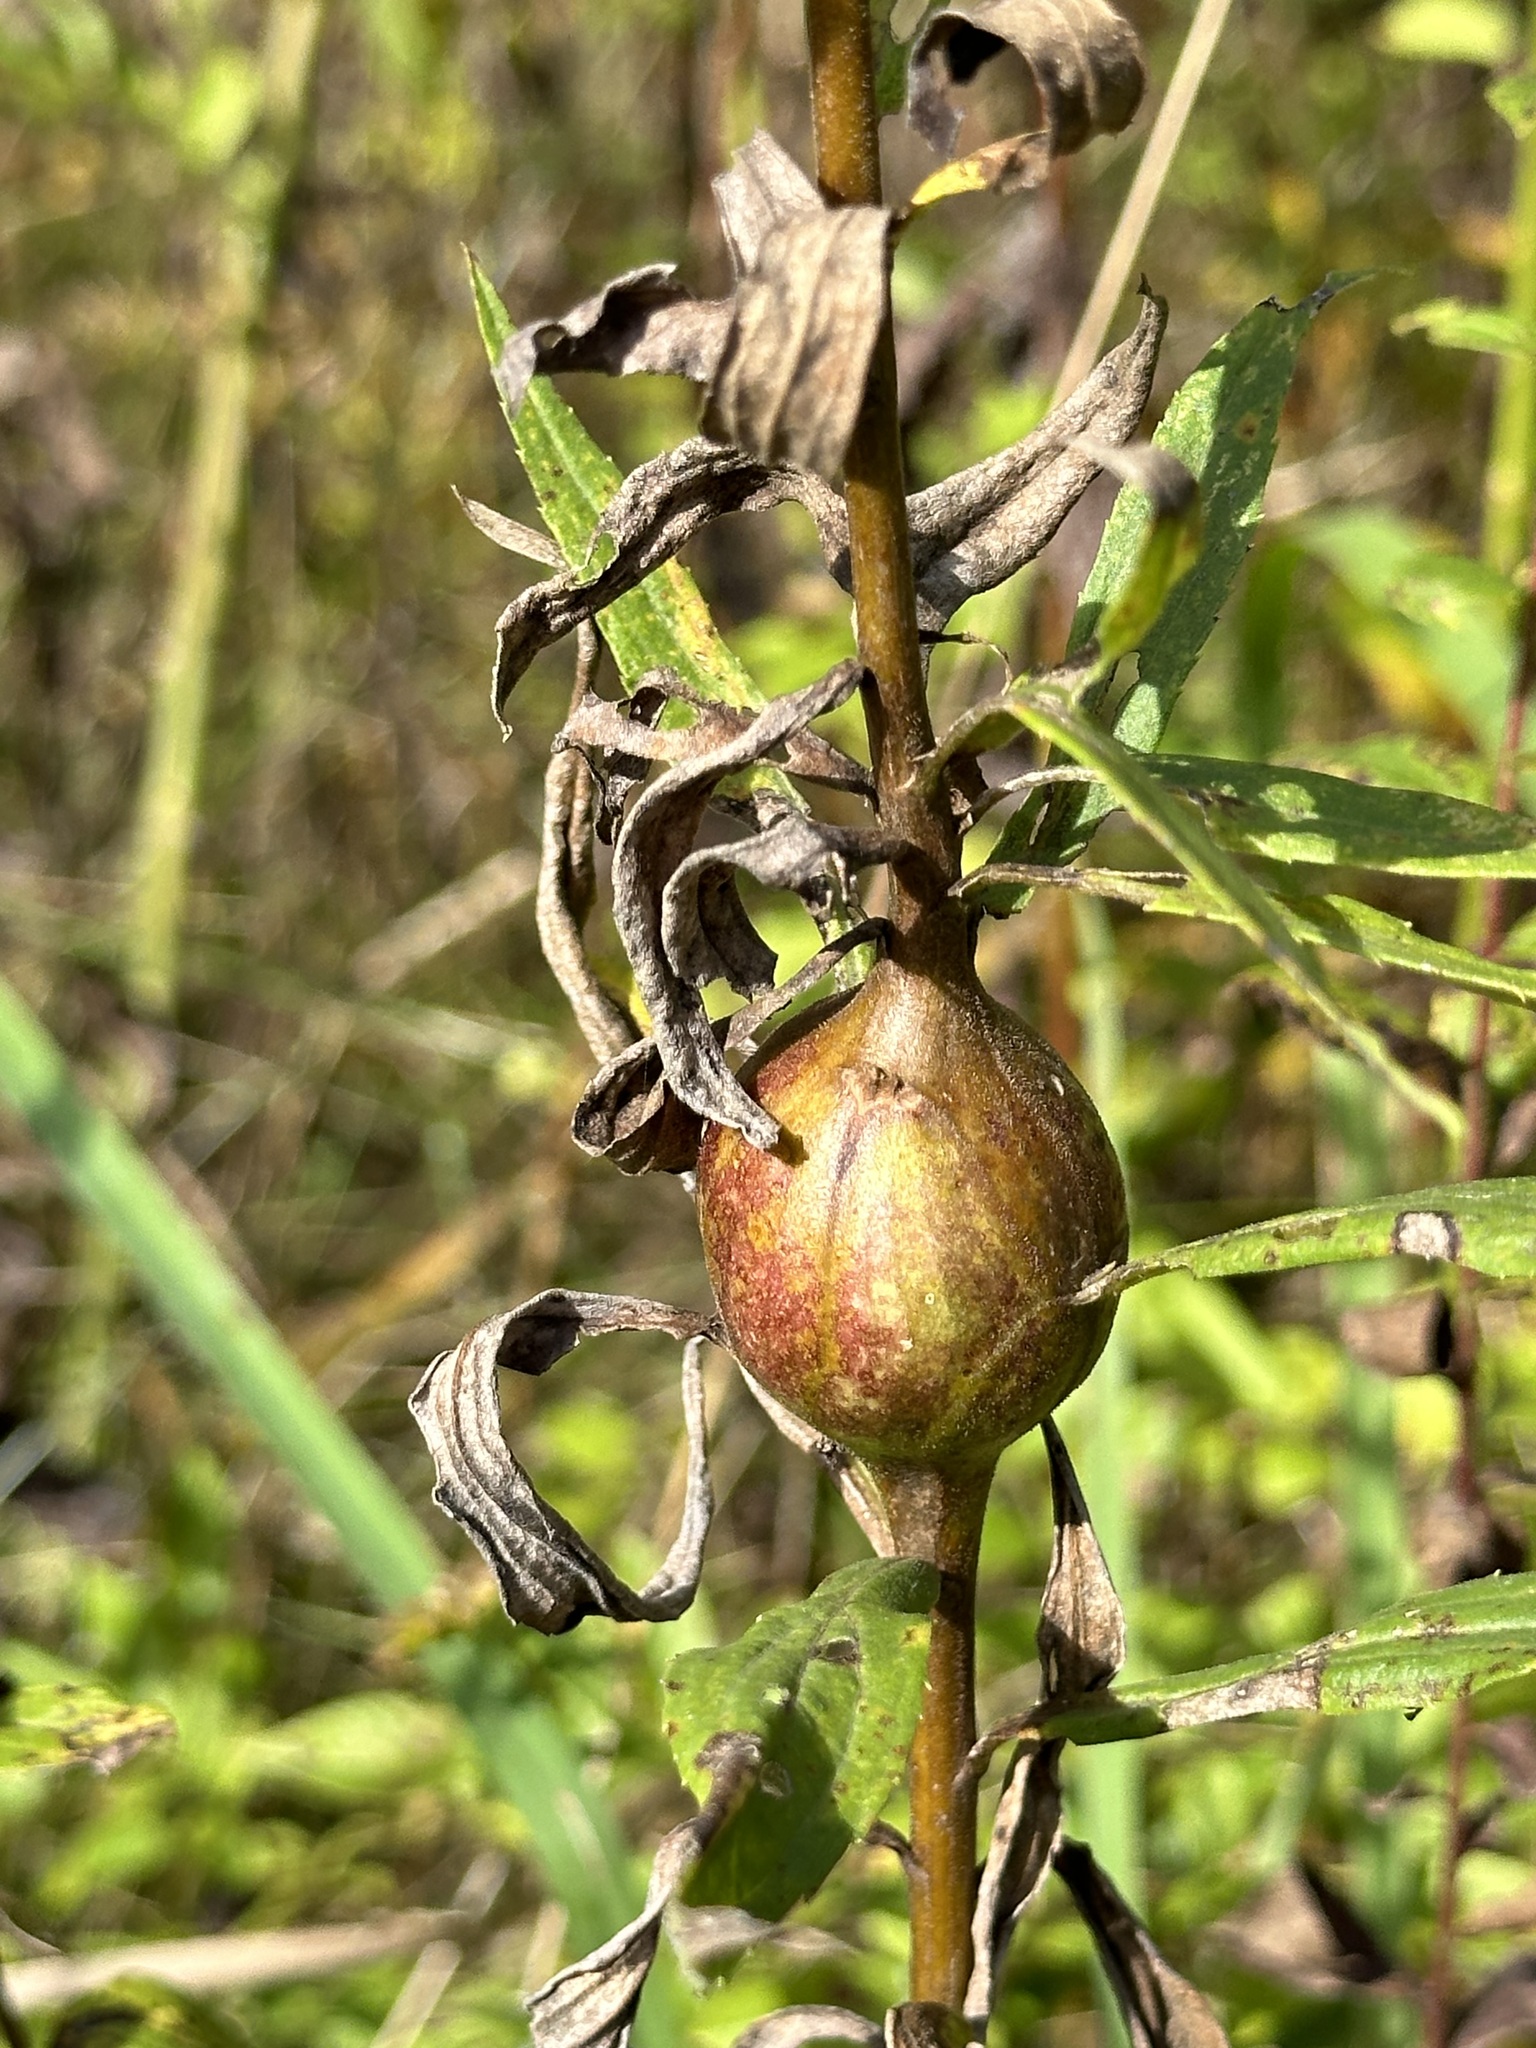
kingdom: Animalia
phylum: Arthropoda
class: Insecta
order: Diptera
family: Tephritidae
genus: Eurosta
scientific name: Eurosta solidaginis
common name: Goldenrod gall fly
